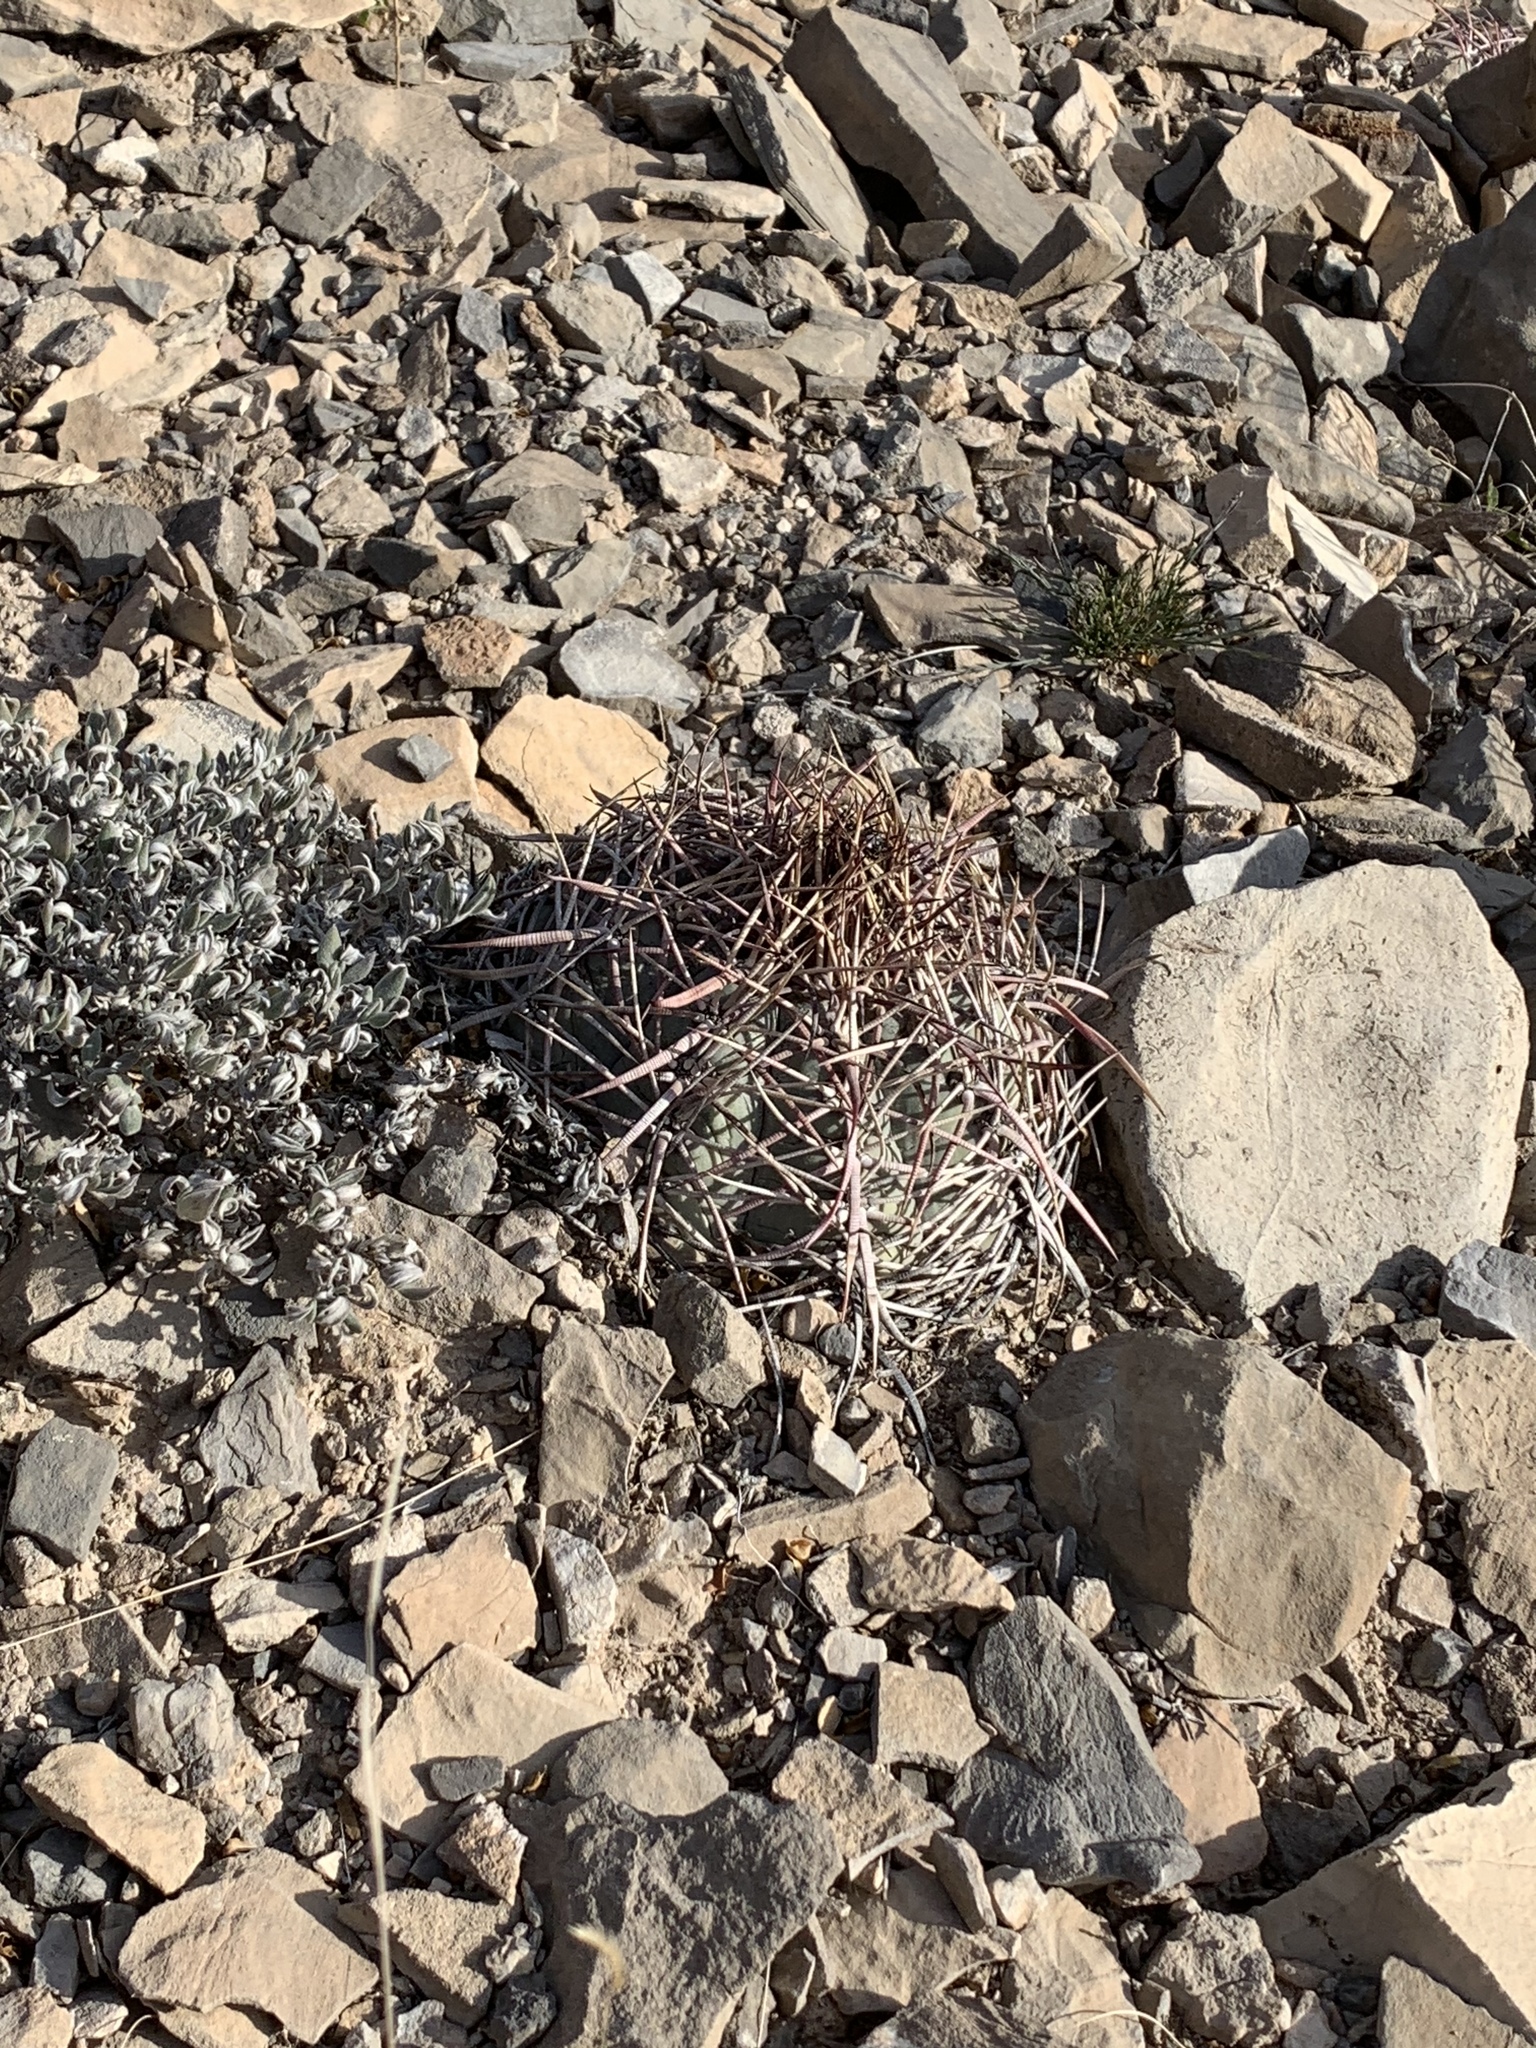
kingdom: Plantae
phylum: Tracheophyta
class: Magnoliopsida
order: Caryophyllales
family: Cactaceae
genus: Echinocactus
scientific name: Echinocactus horizonthalonius
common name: Devilshead
